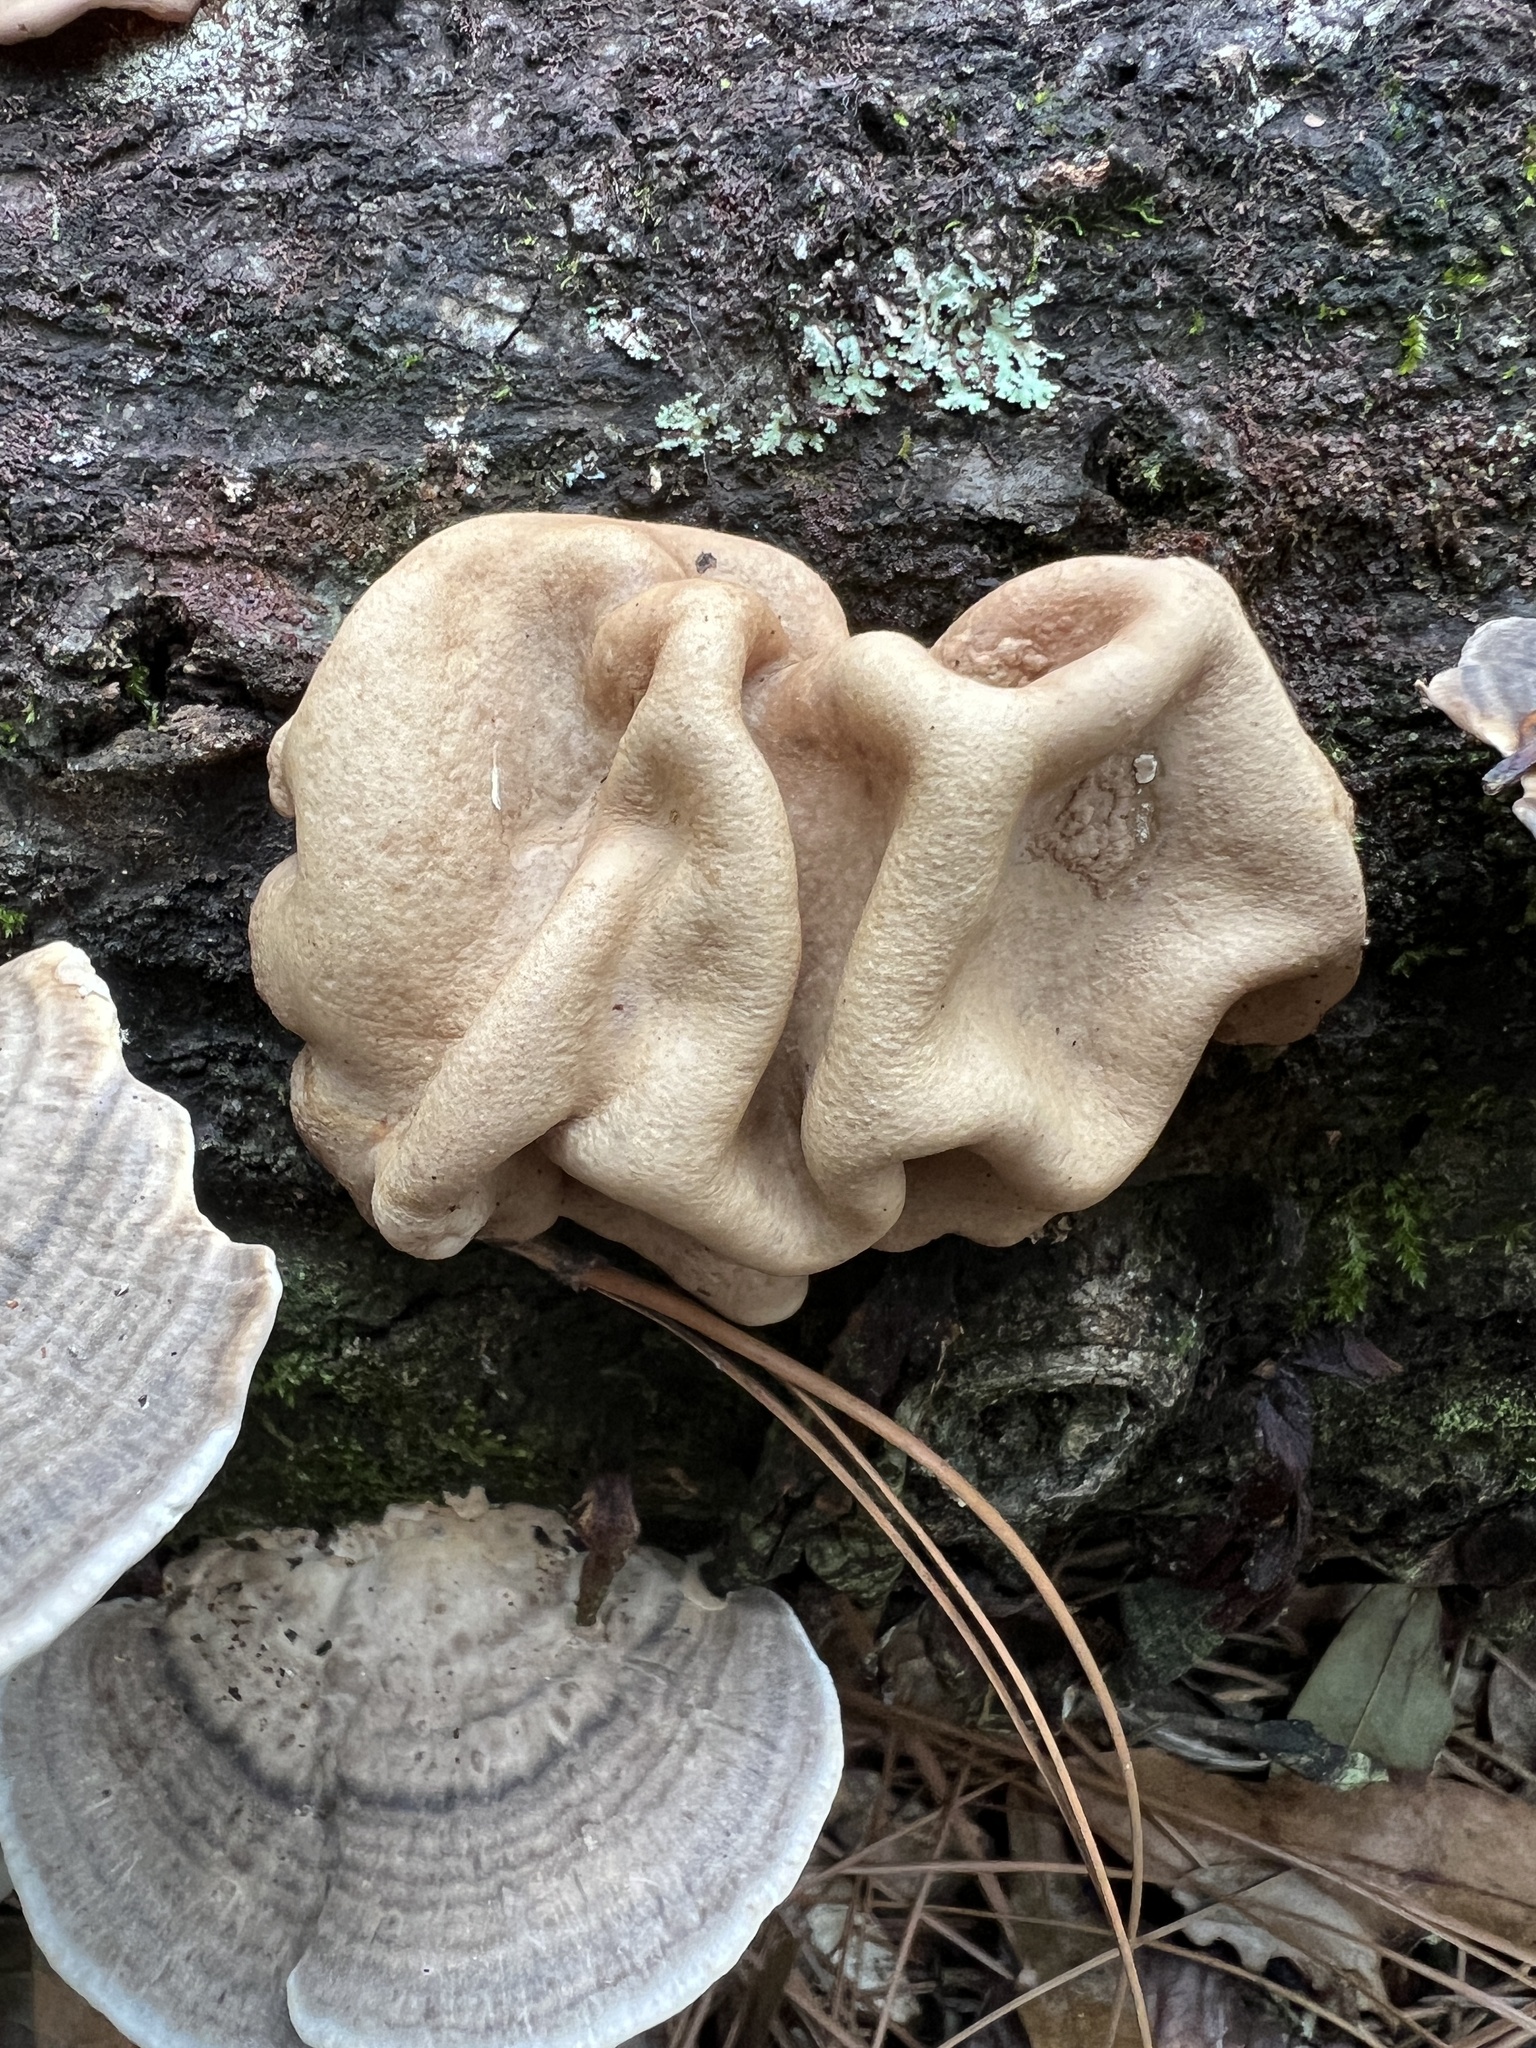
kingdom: Fungi
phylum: Ascomycota
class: Sordariomycetes
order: Hypocreales
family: Hypocreaceae
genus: Trichoderma
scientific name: Trichoderma peltatum
